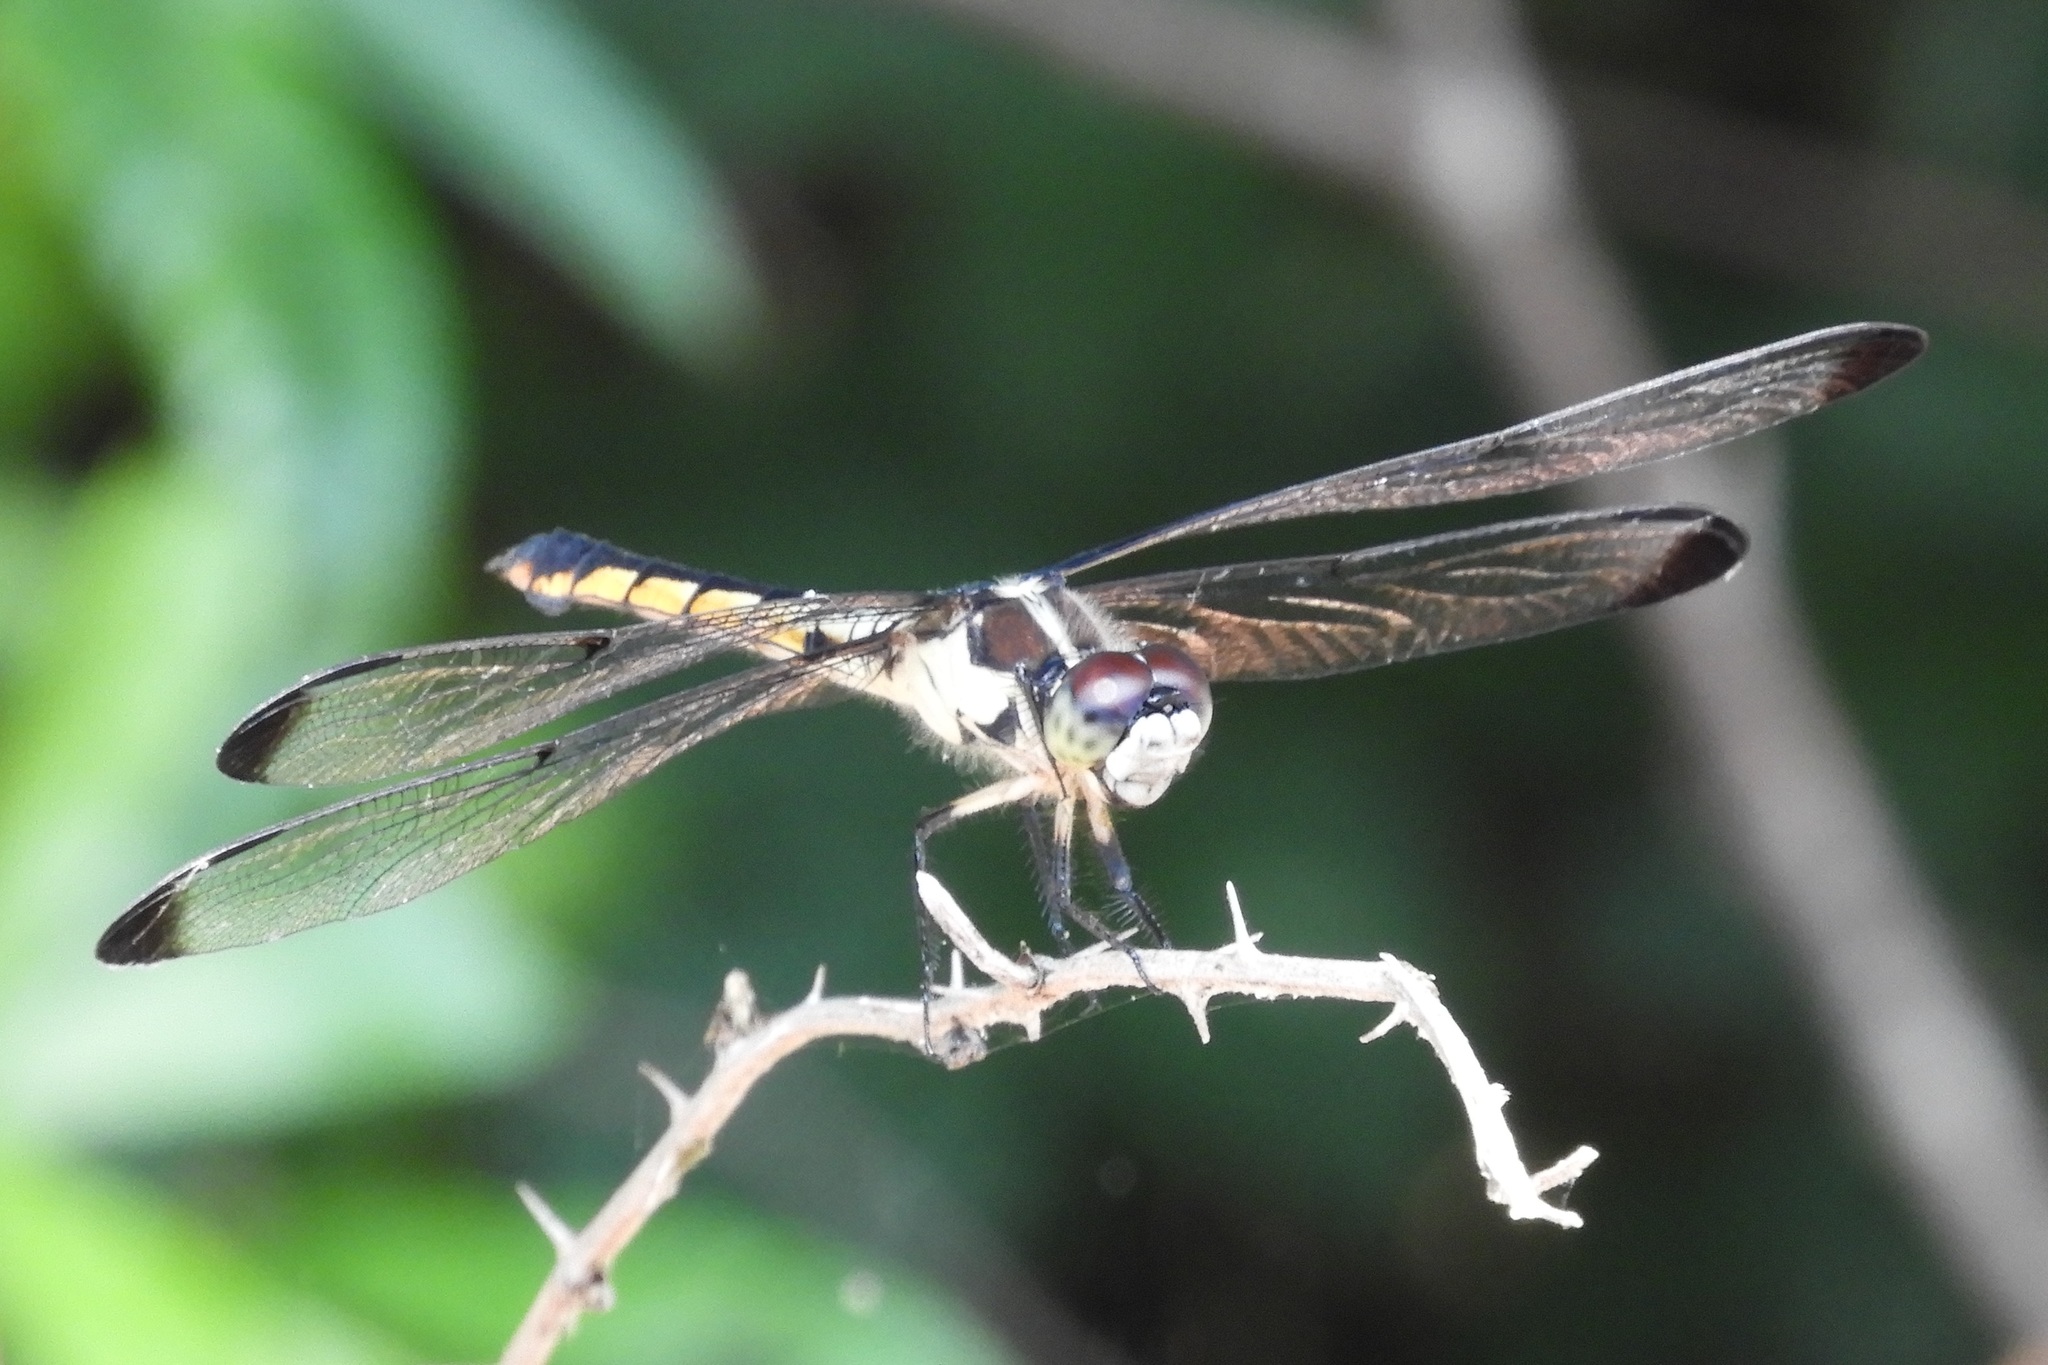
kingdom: Animalia
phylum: Arthropoda
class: Insecta
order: Odonata
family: Libellulidae
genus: Libellula
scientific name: Libellula vibrans
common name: Great blue skimmer
